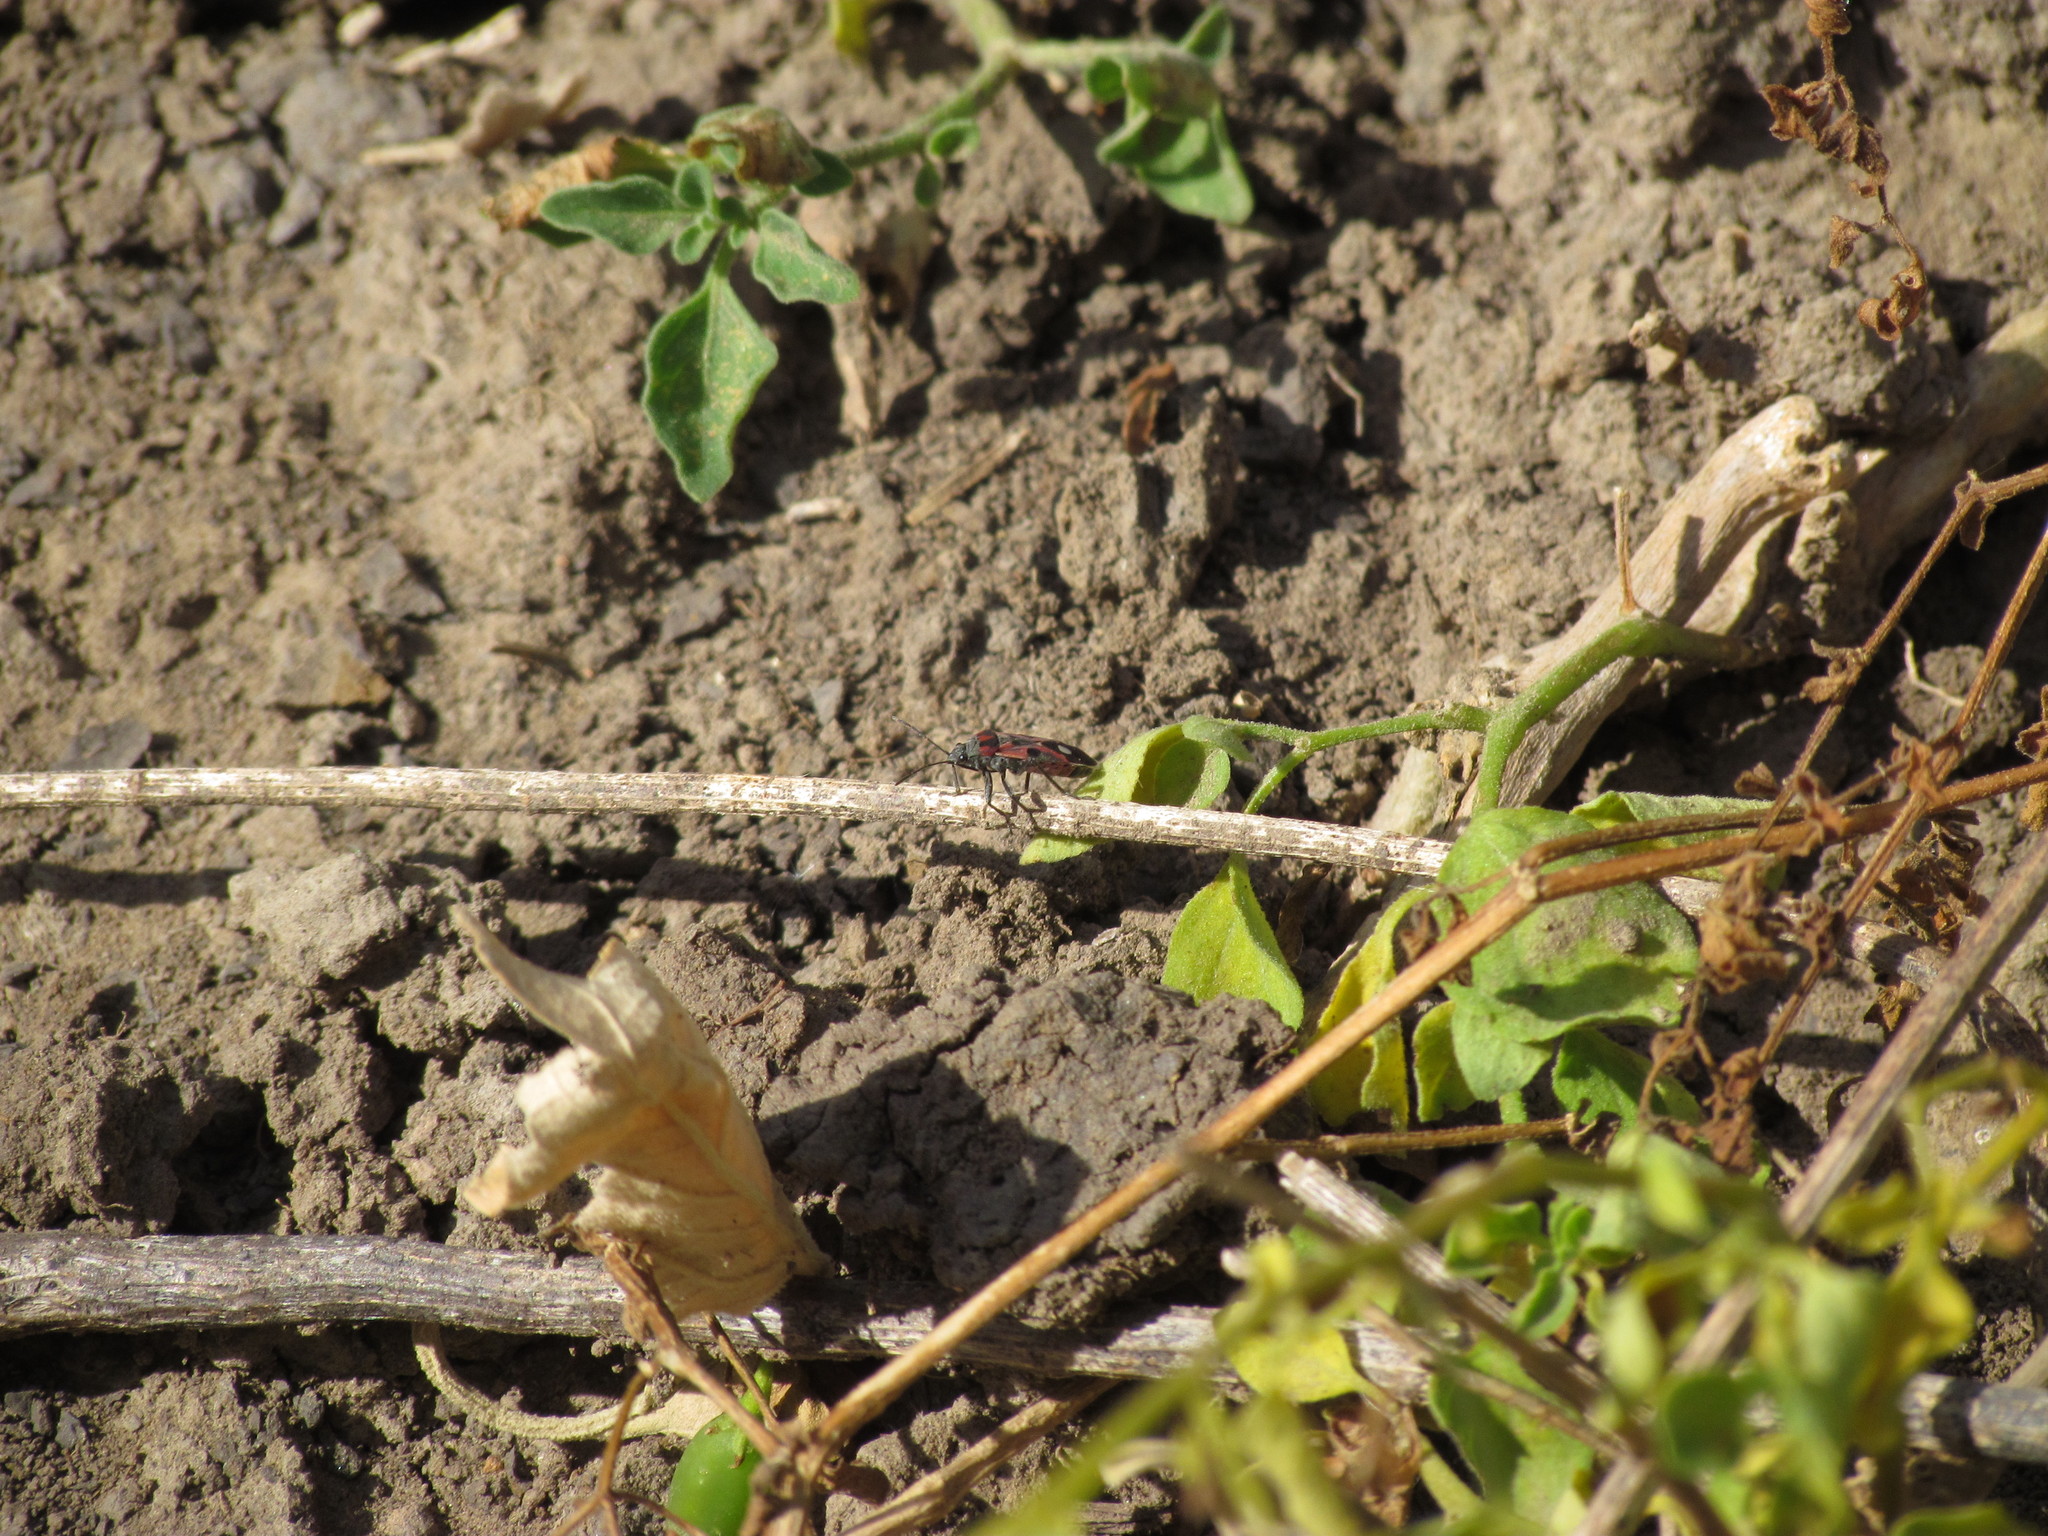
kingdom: Animalia
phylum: Arthropoda
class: Insecta
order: Hemiptera
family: Lygaeidae
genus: Lygaeus
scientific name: Lygaeus alboornatus
